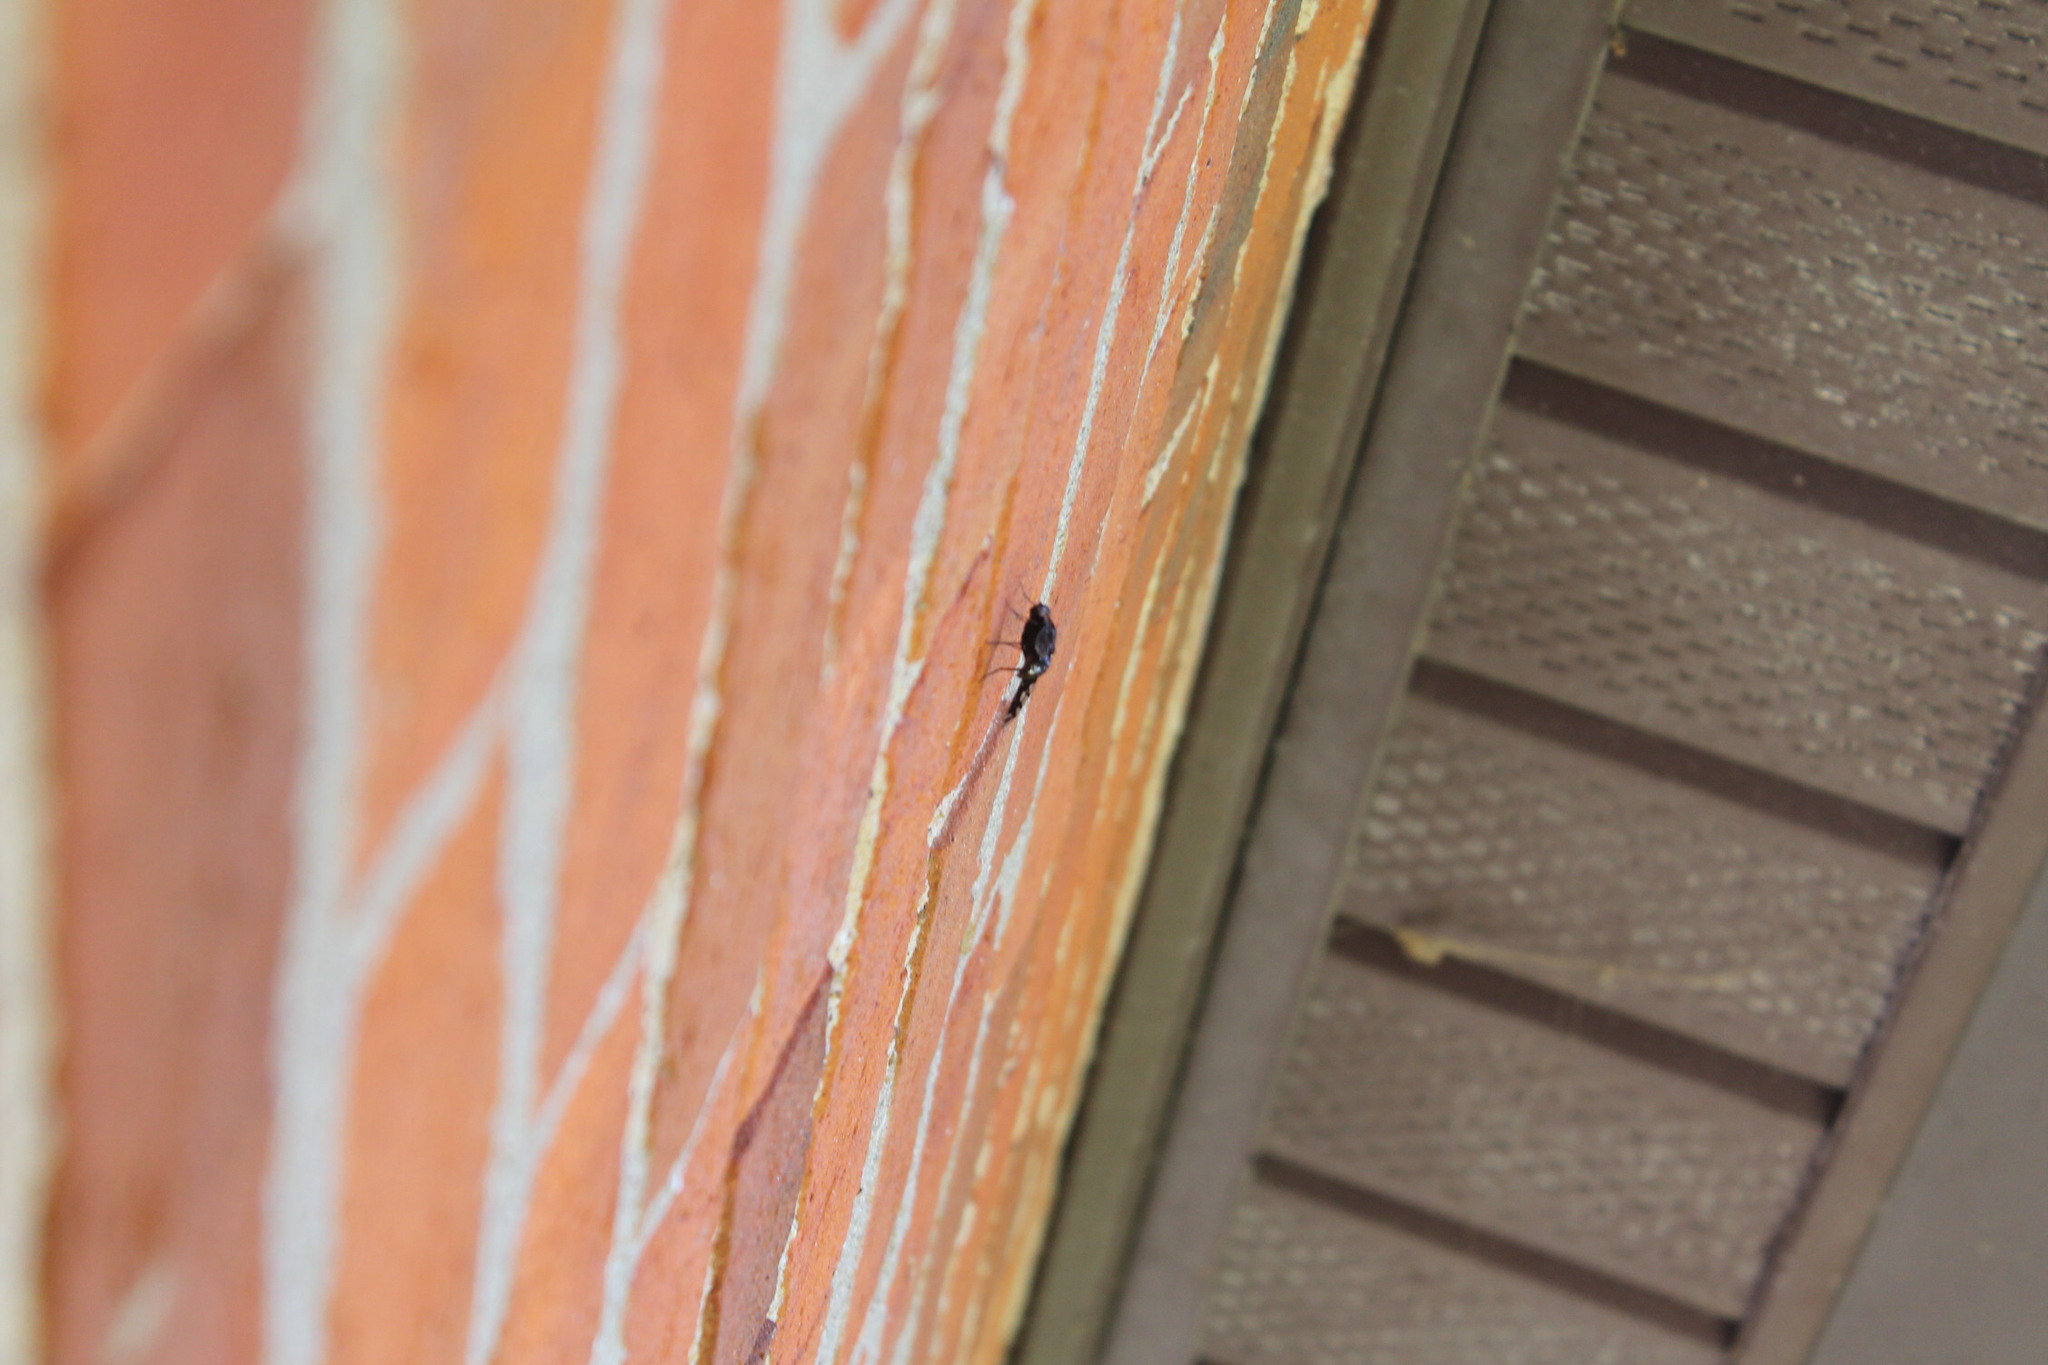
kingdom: Animalia
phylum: Arthropoda
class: Insecta
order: Diptera
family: Bombyliidae
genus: Xenox
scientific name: Xenox tigrinus
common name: Tiger bee fly
